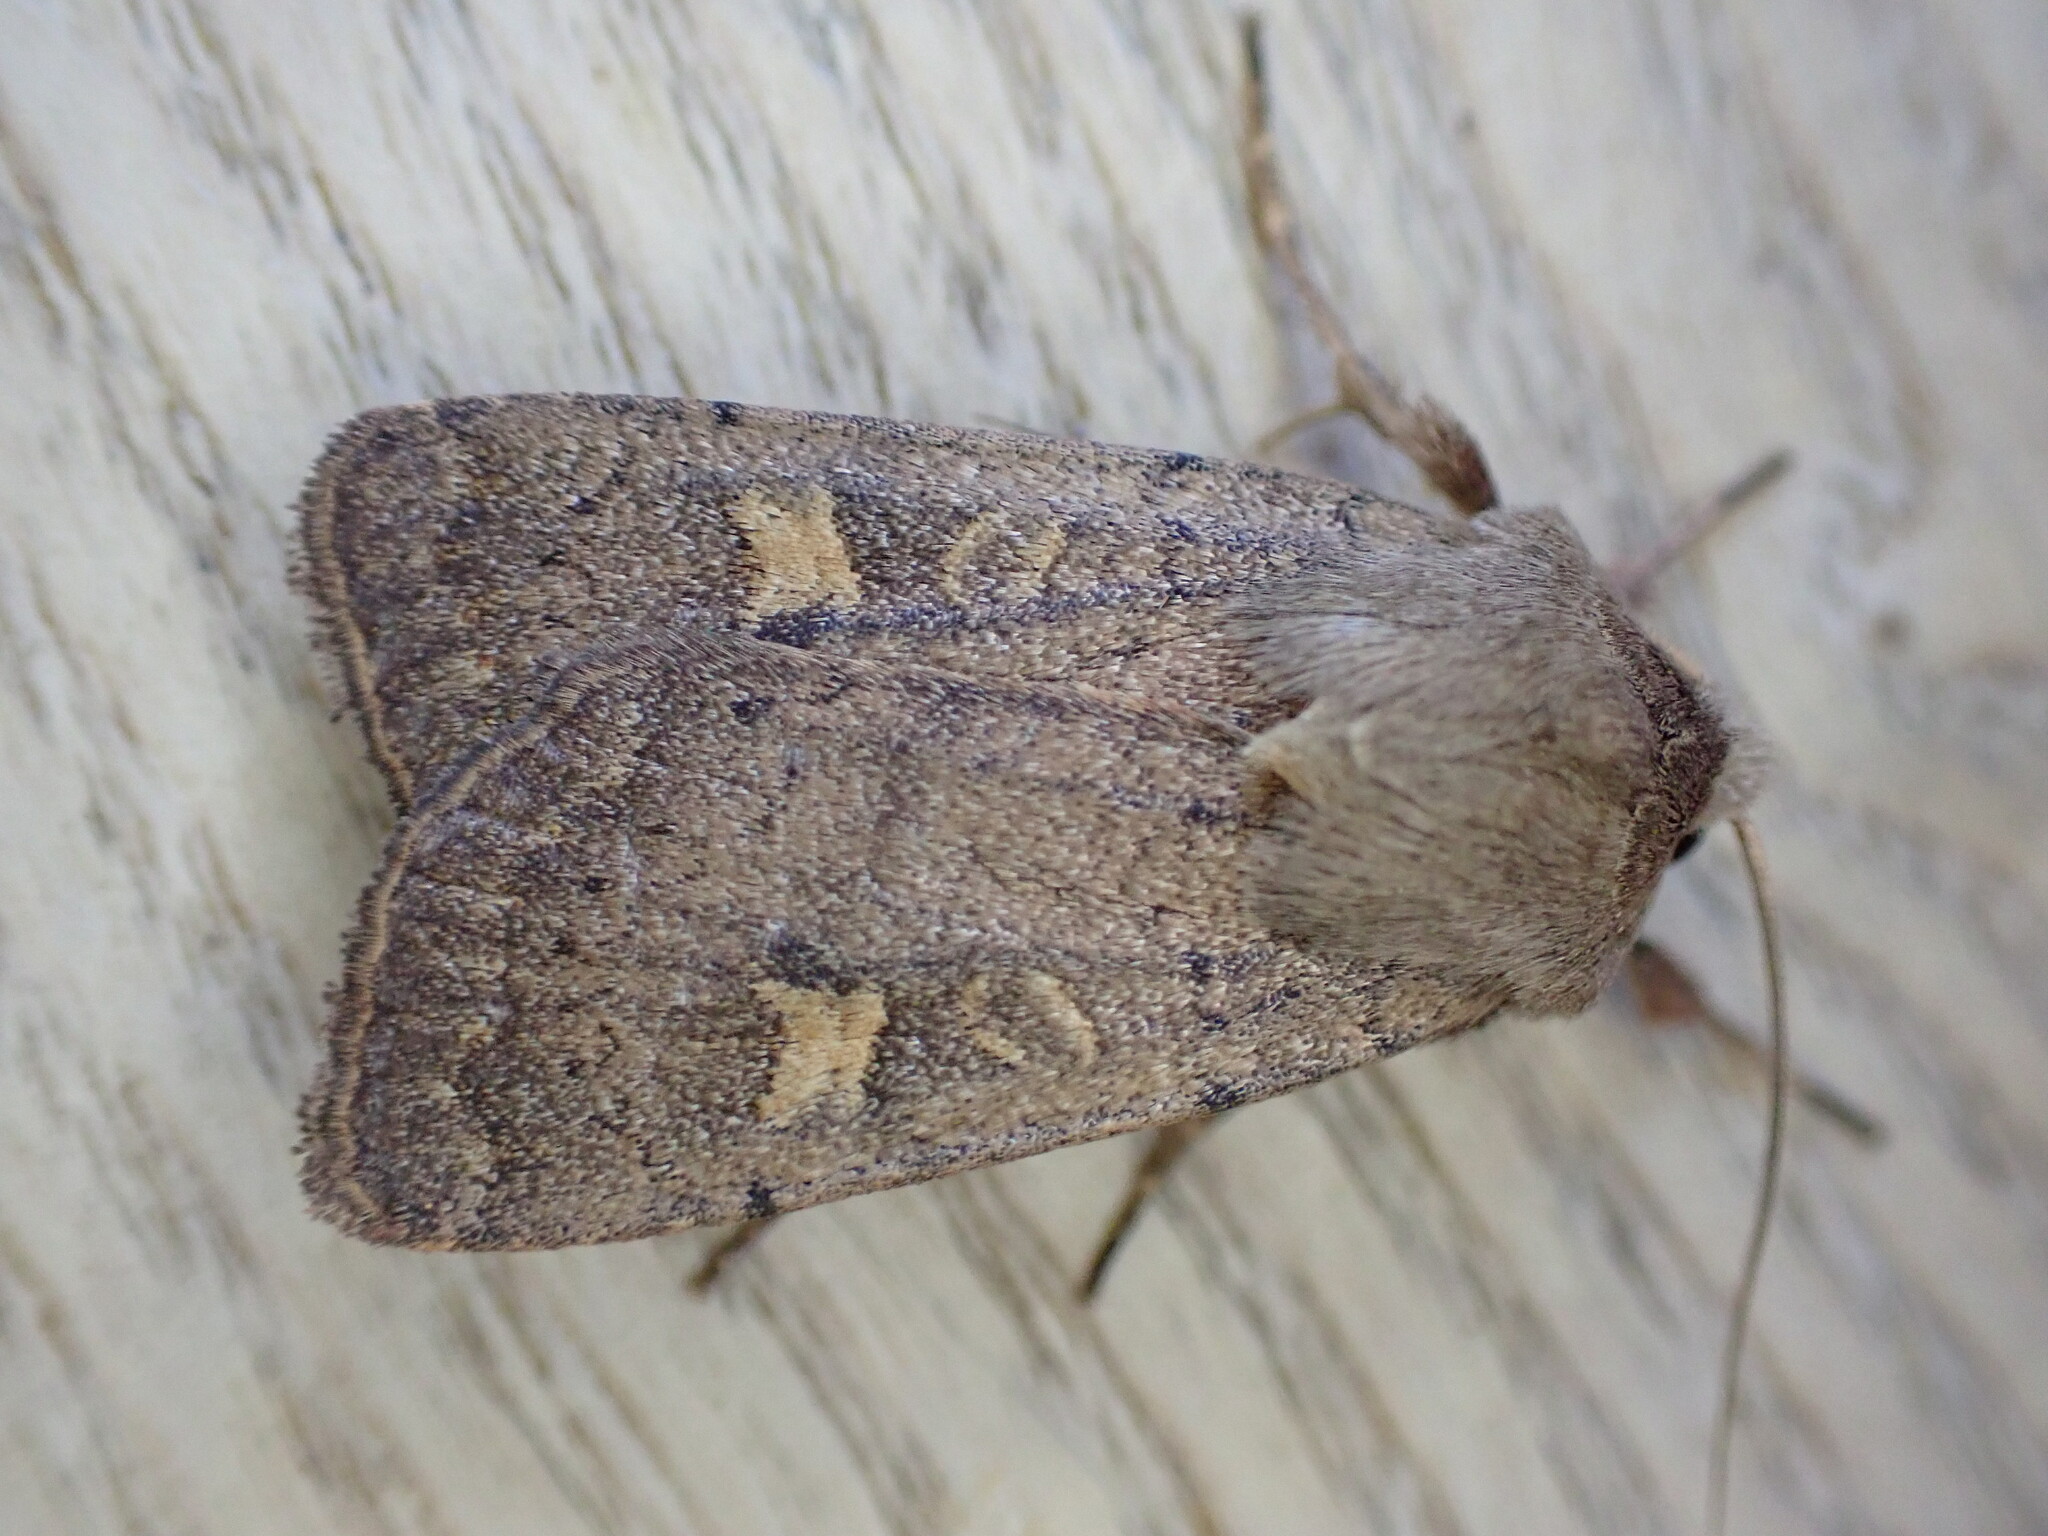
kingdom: Animalia
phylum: Arthropoda
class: Insecta
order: Lepidoptera
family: Noctuidae
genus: Xestia
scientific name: Xestia xanthographa
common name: Square-spot rustic
